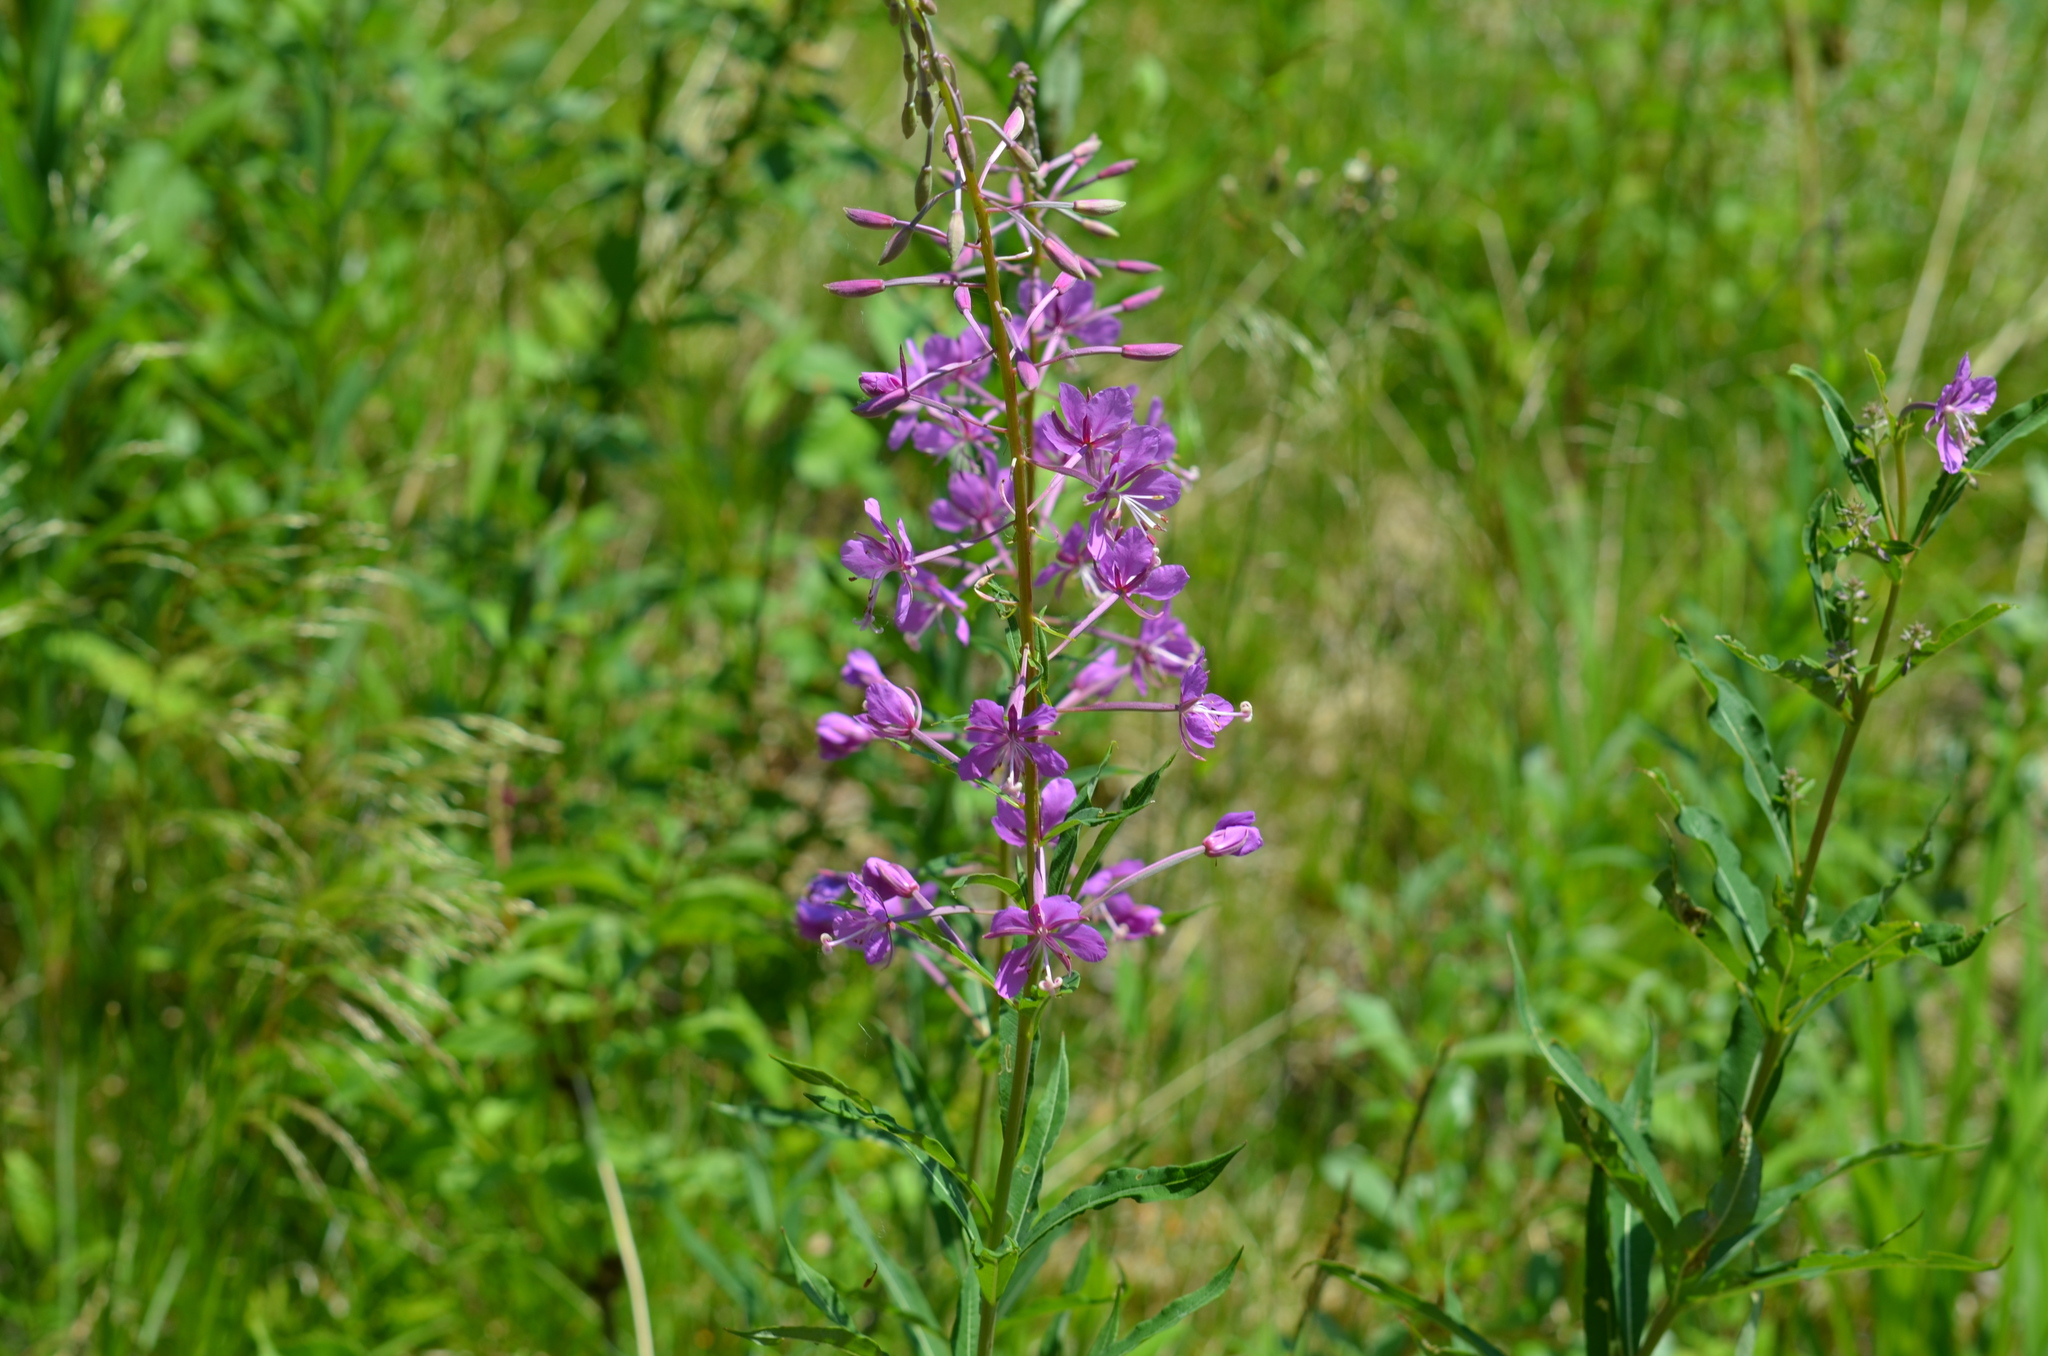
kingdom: Plantae
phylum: Tracheophyta
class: Magnoliopsida
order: Myrtales
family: Onagraceae
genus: Chamaenerion
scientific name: Chamaenerion angustifolium
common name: Fireweed
